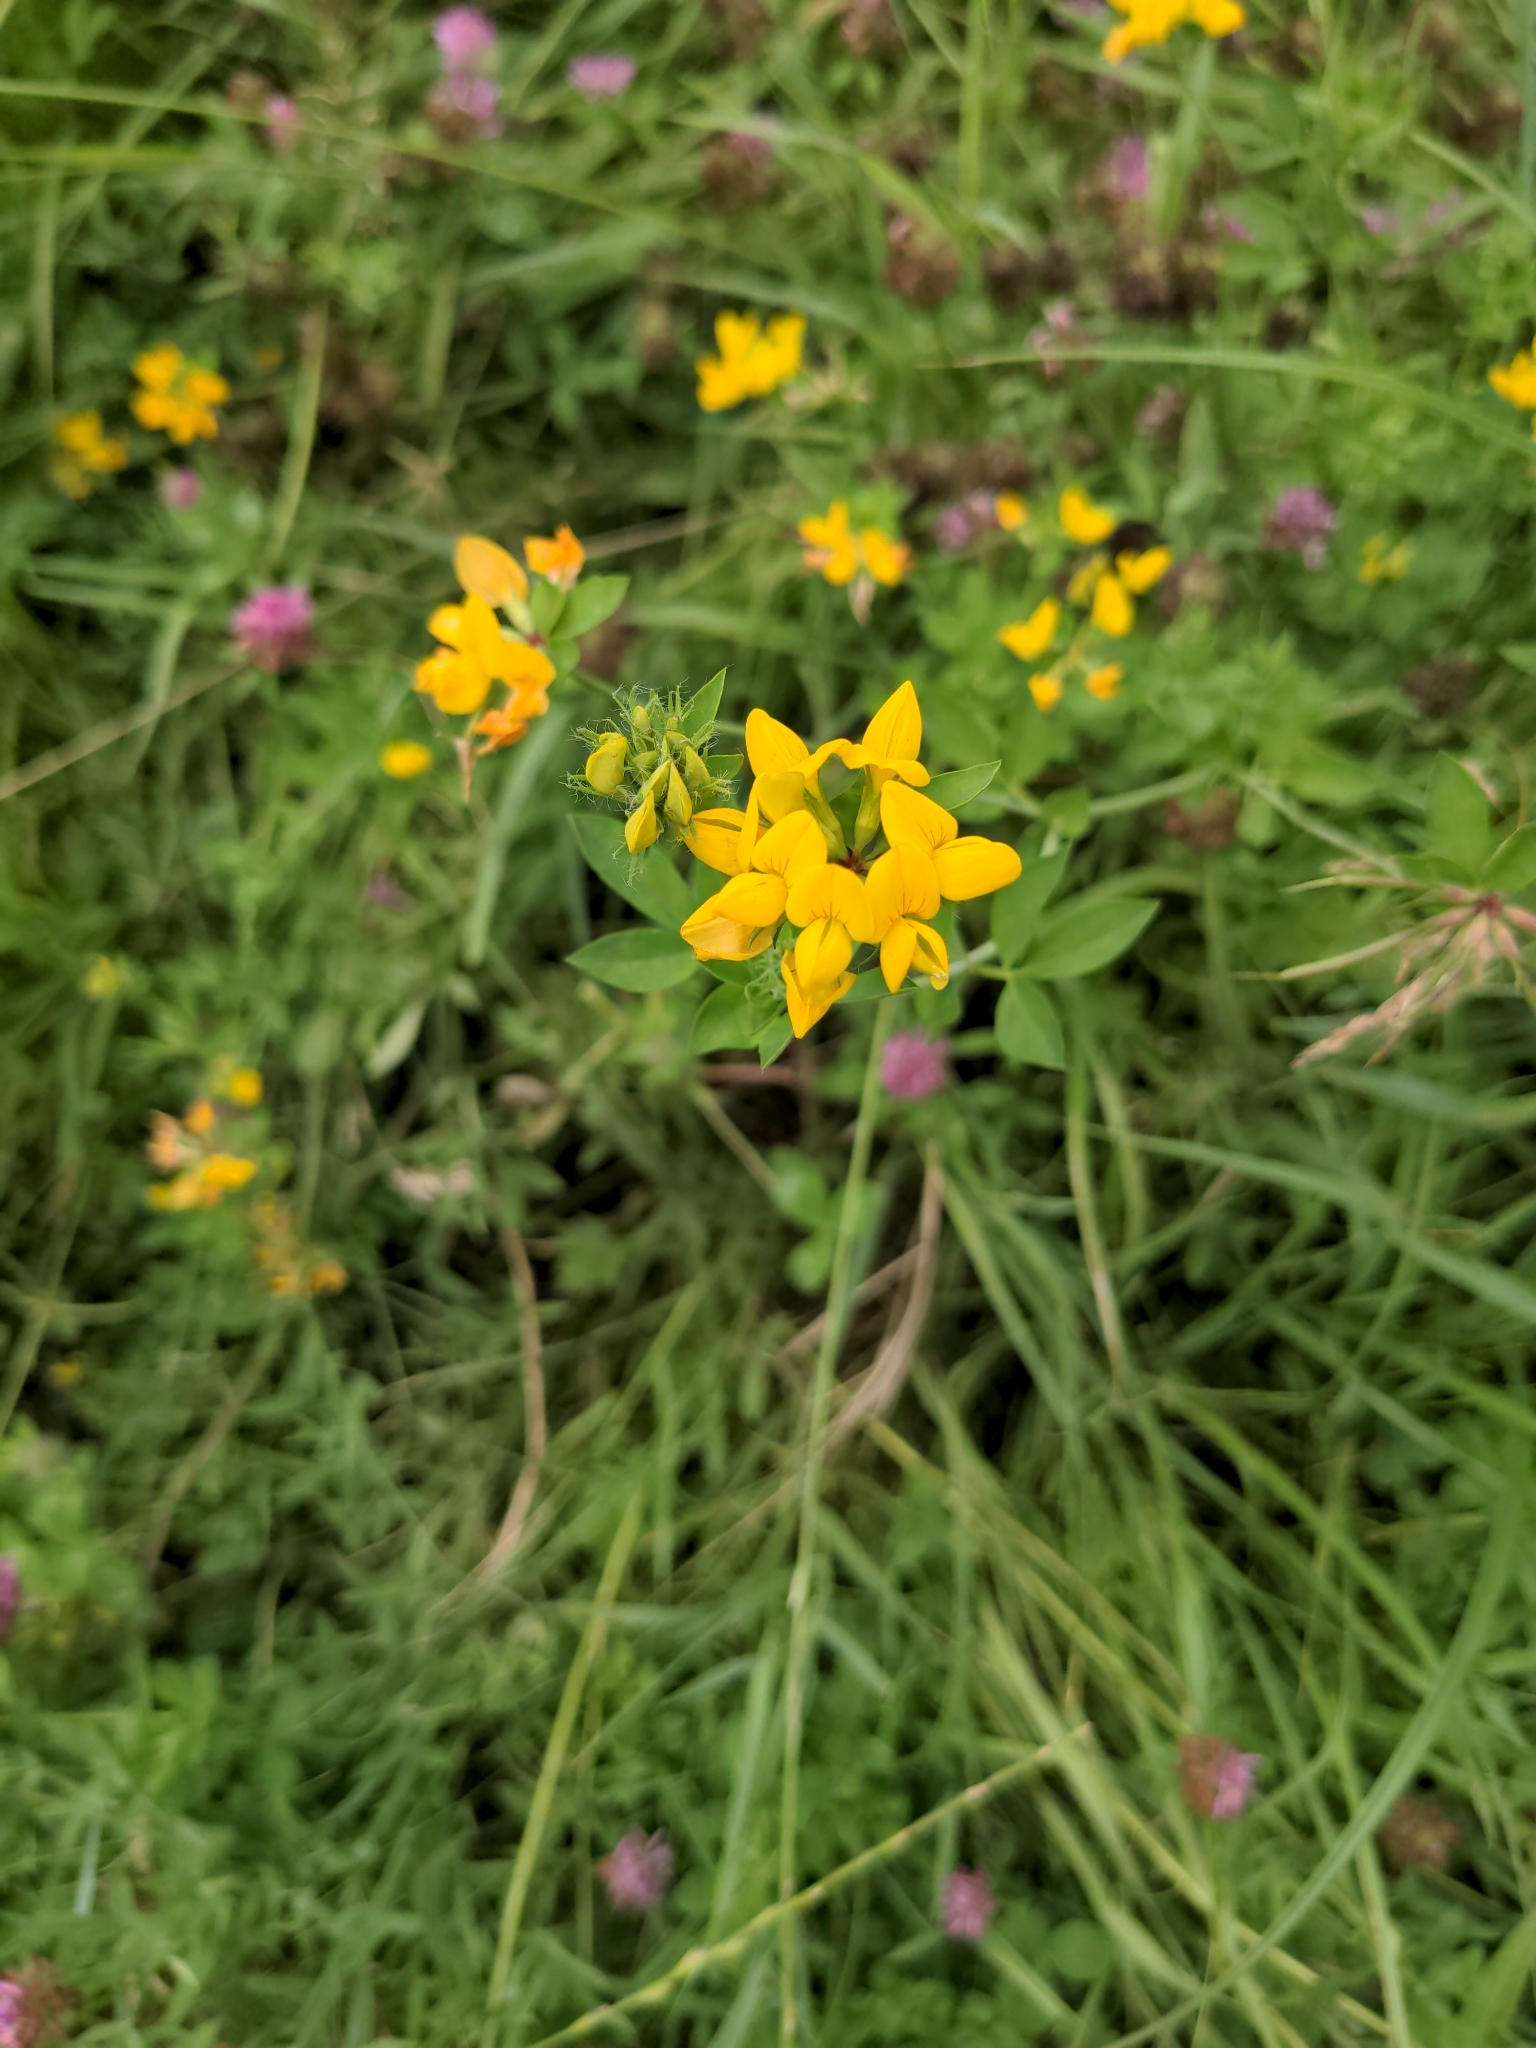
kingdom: Plantae
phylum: Tracheophyta
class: Magnoliopsida
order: Fabales
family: Fabaceae
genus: Lotus
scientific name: Lotus pedunculatus
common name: Greater birdsfoot-trefoil
